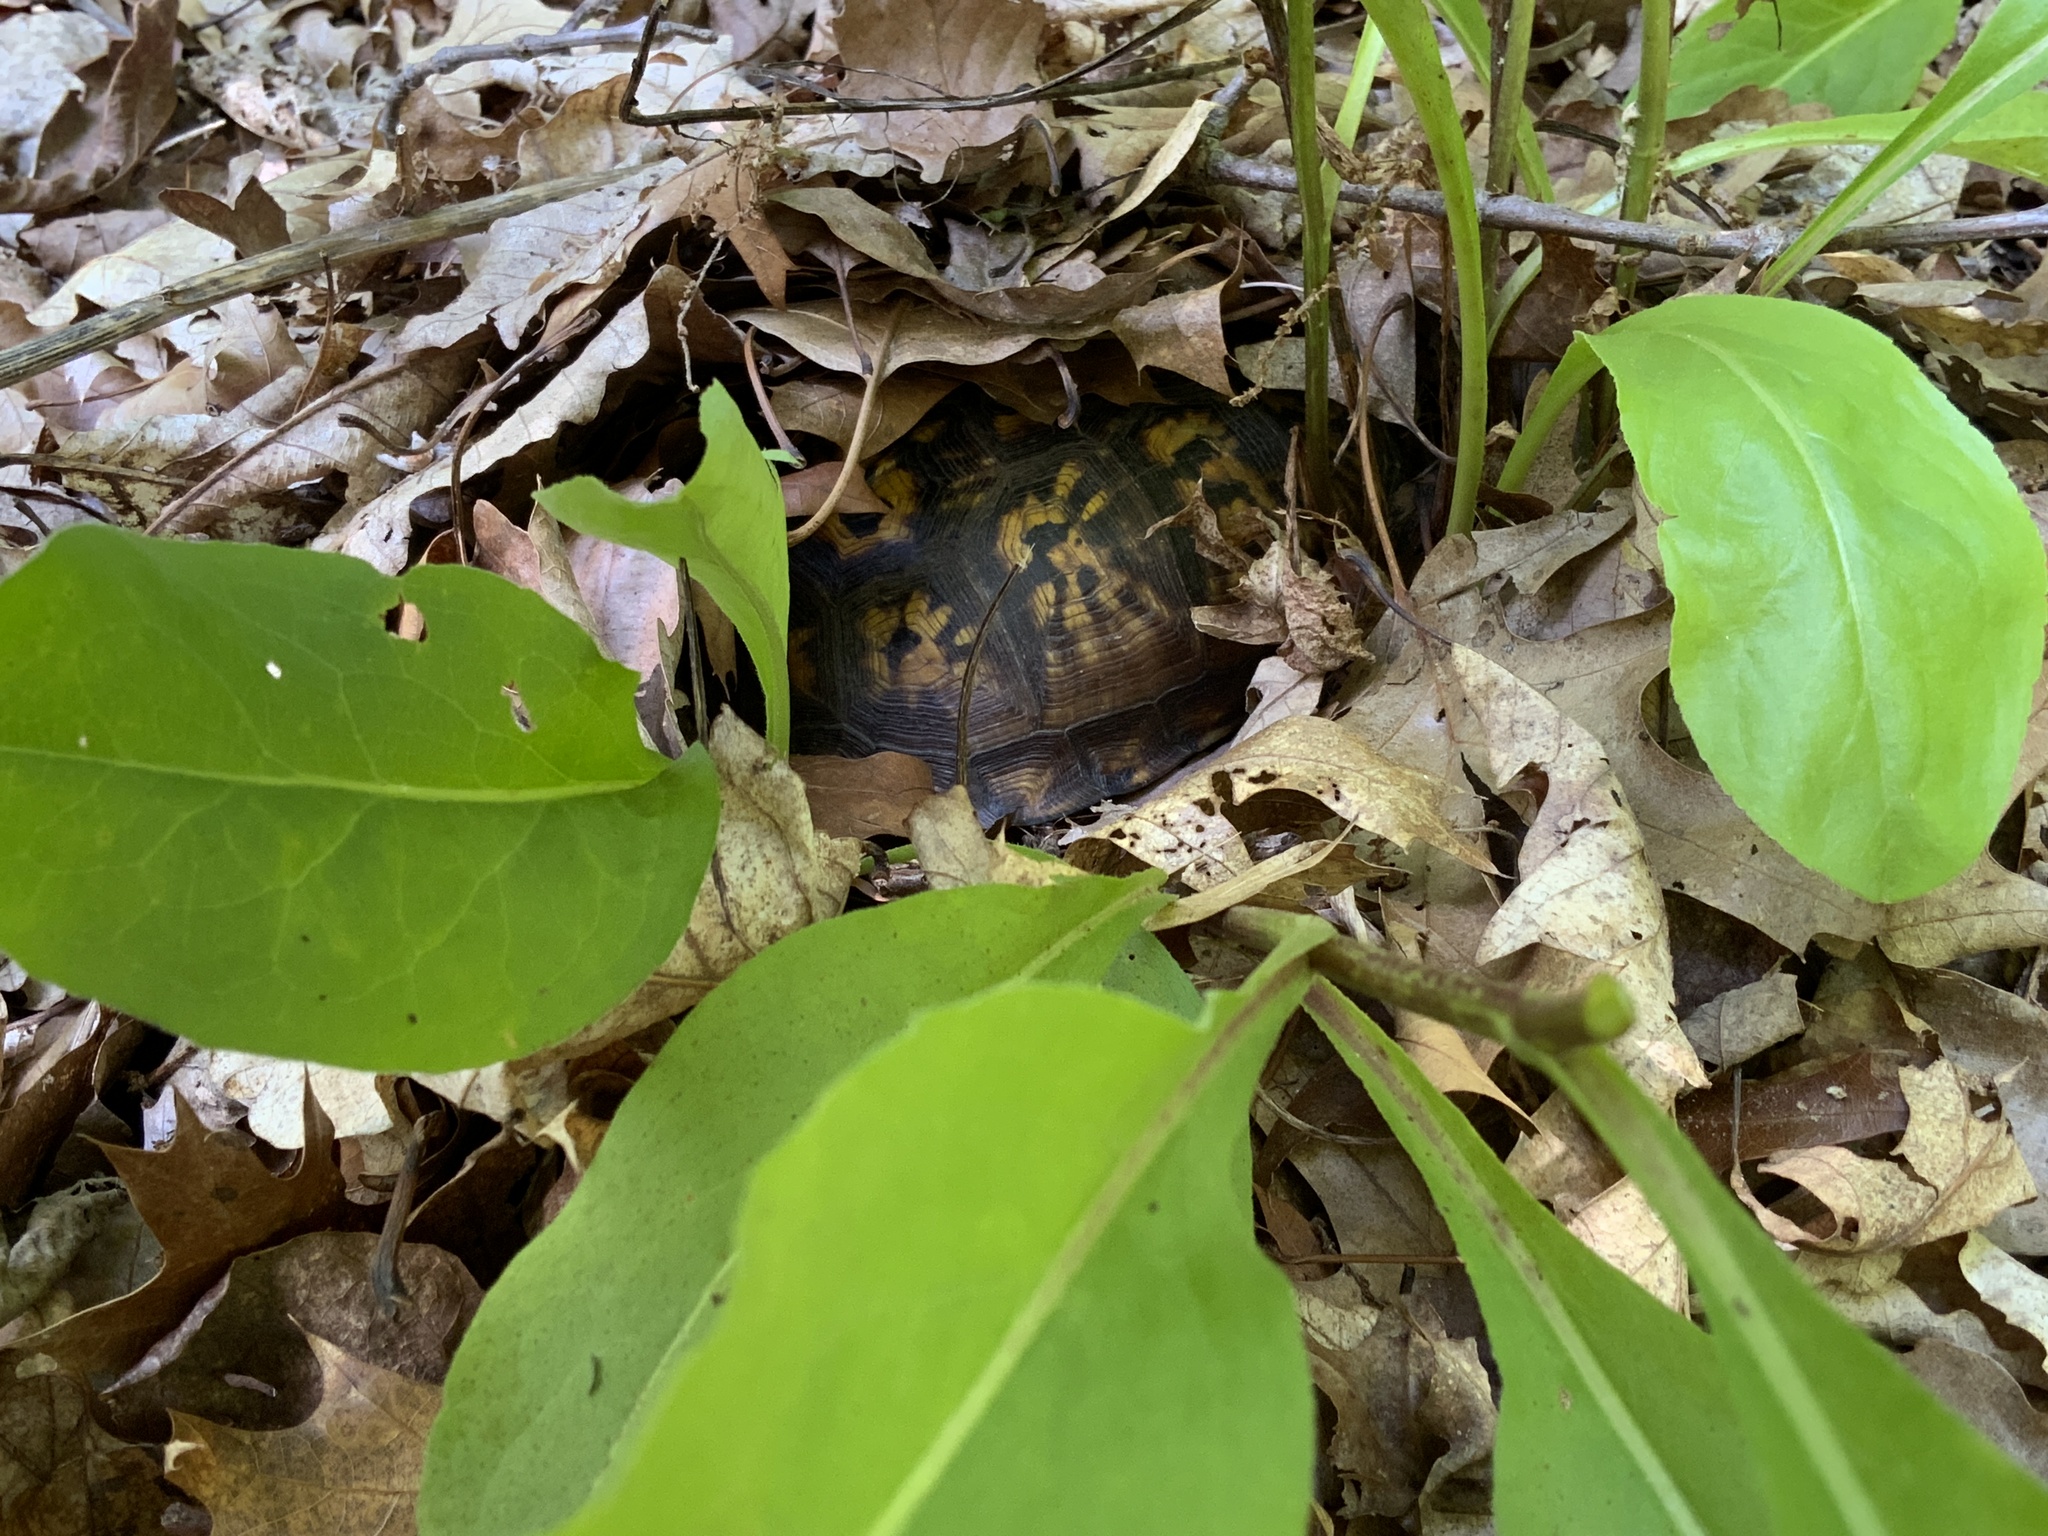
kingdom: Animalia
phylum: Chordata
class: Testudines
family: Emydidae
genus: Terrapene
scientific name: Terrapene carolina
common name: Common box turtle
